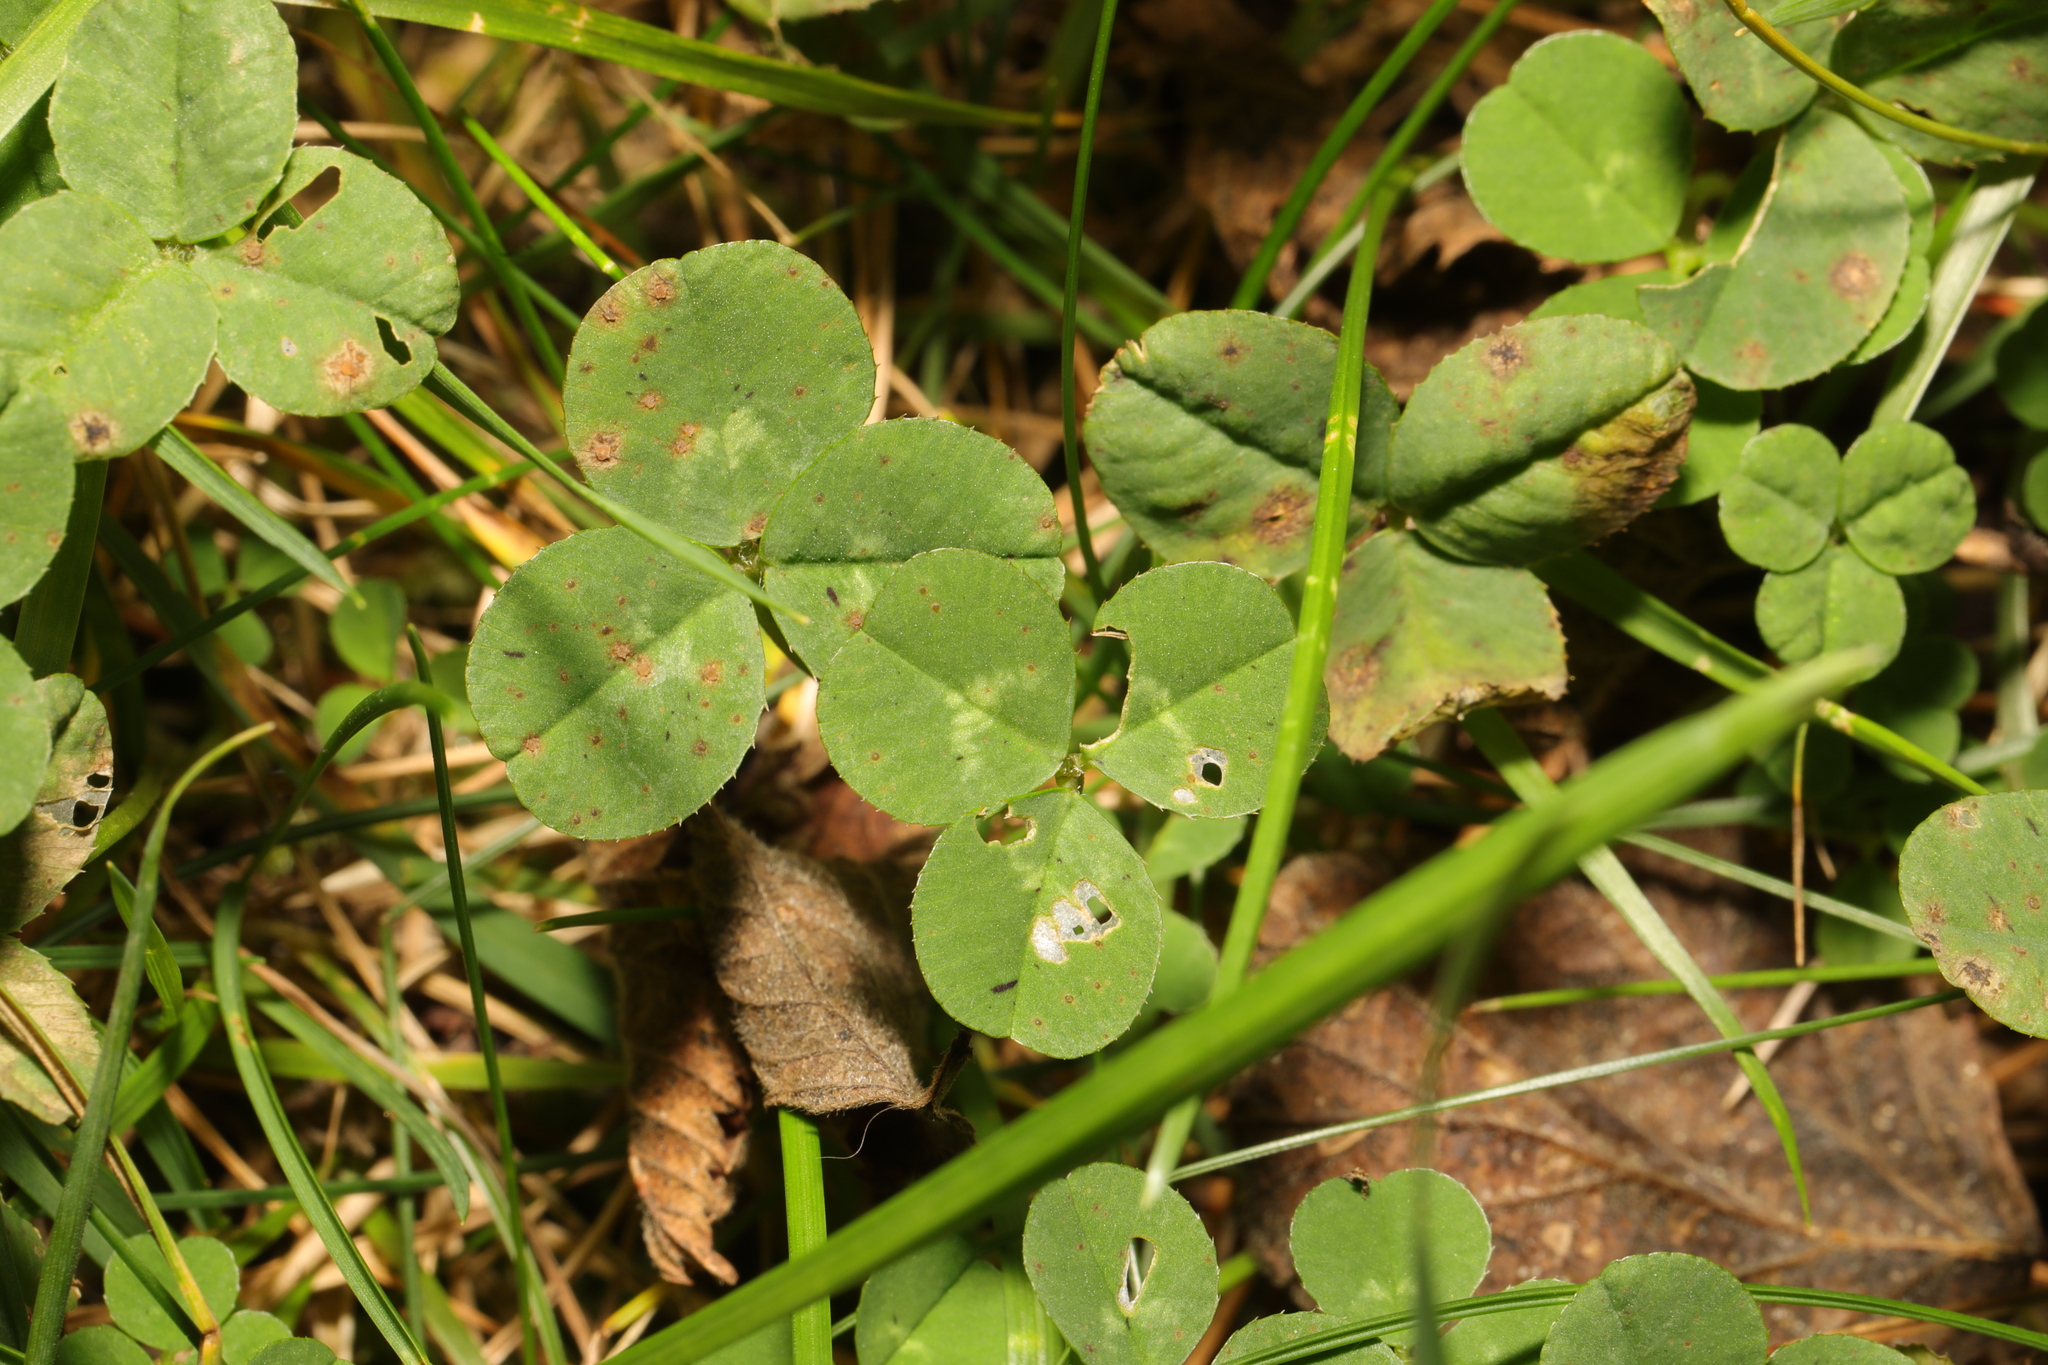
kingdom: Plantae
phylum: Tracheophyta
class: Magnoliopsida
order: Fabales
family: Fabaceae
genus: Trifolium
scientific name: Trifolium repens
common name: White clover
